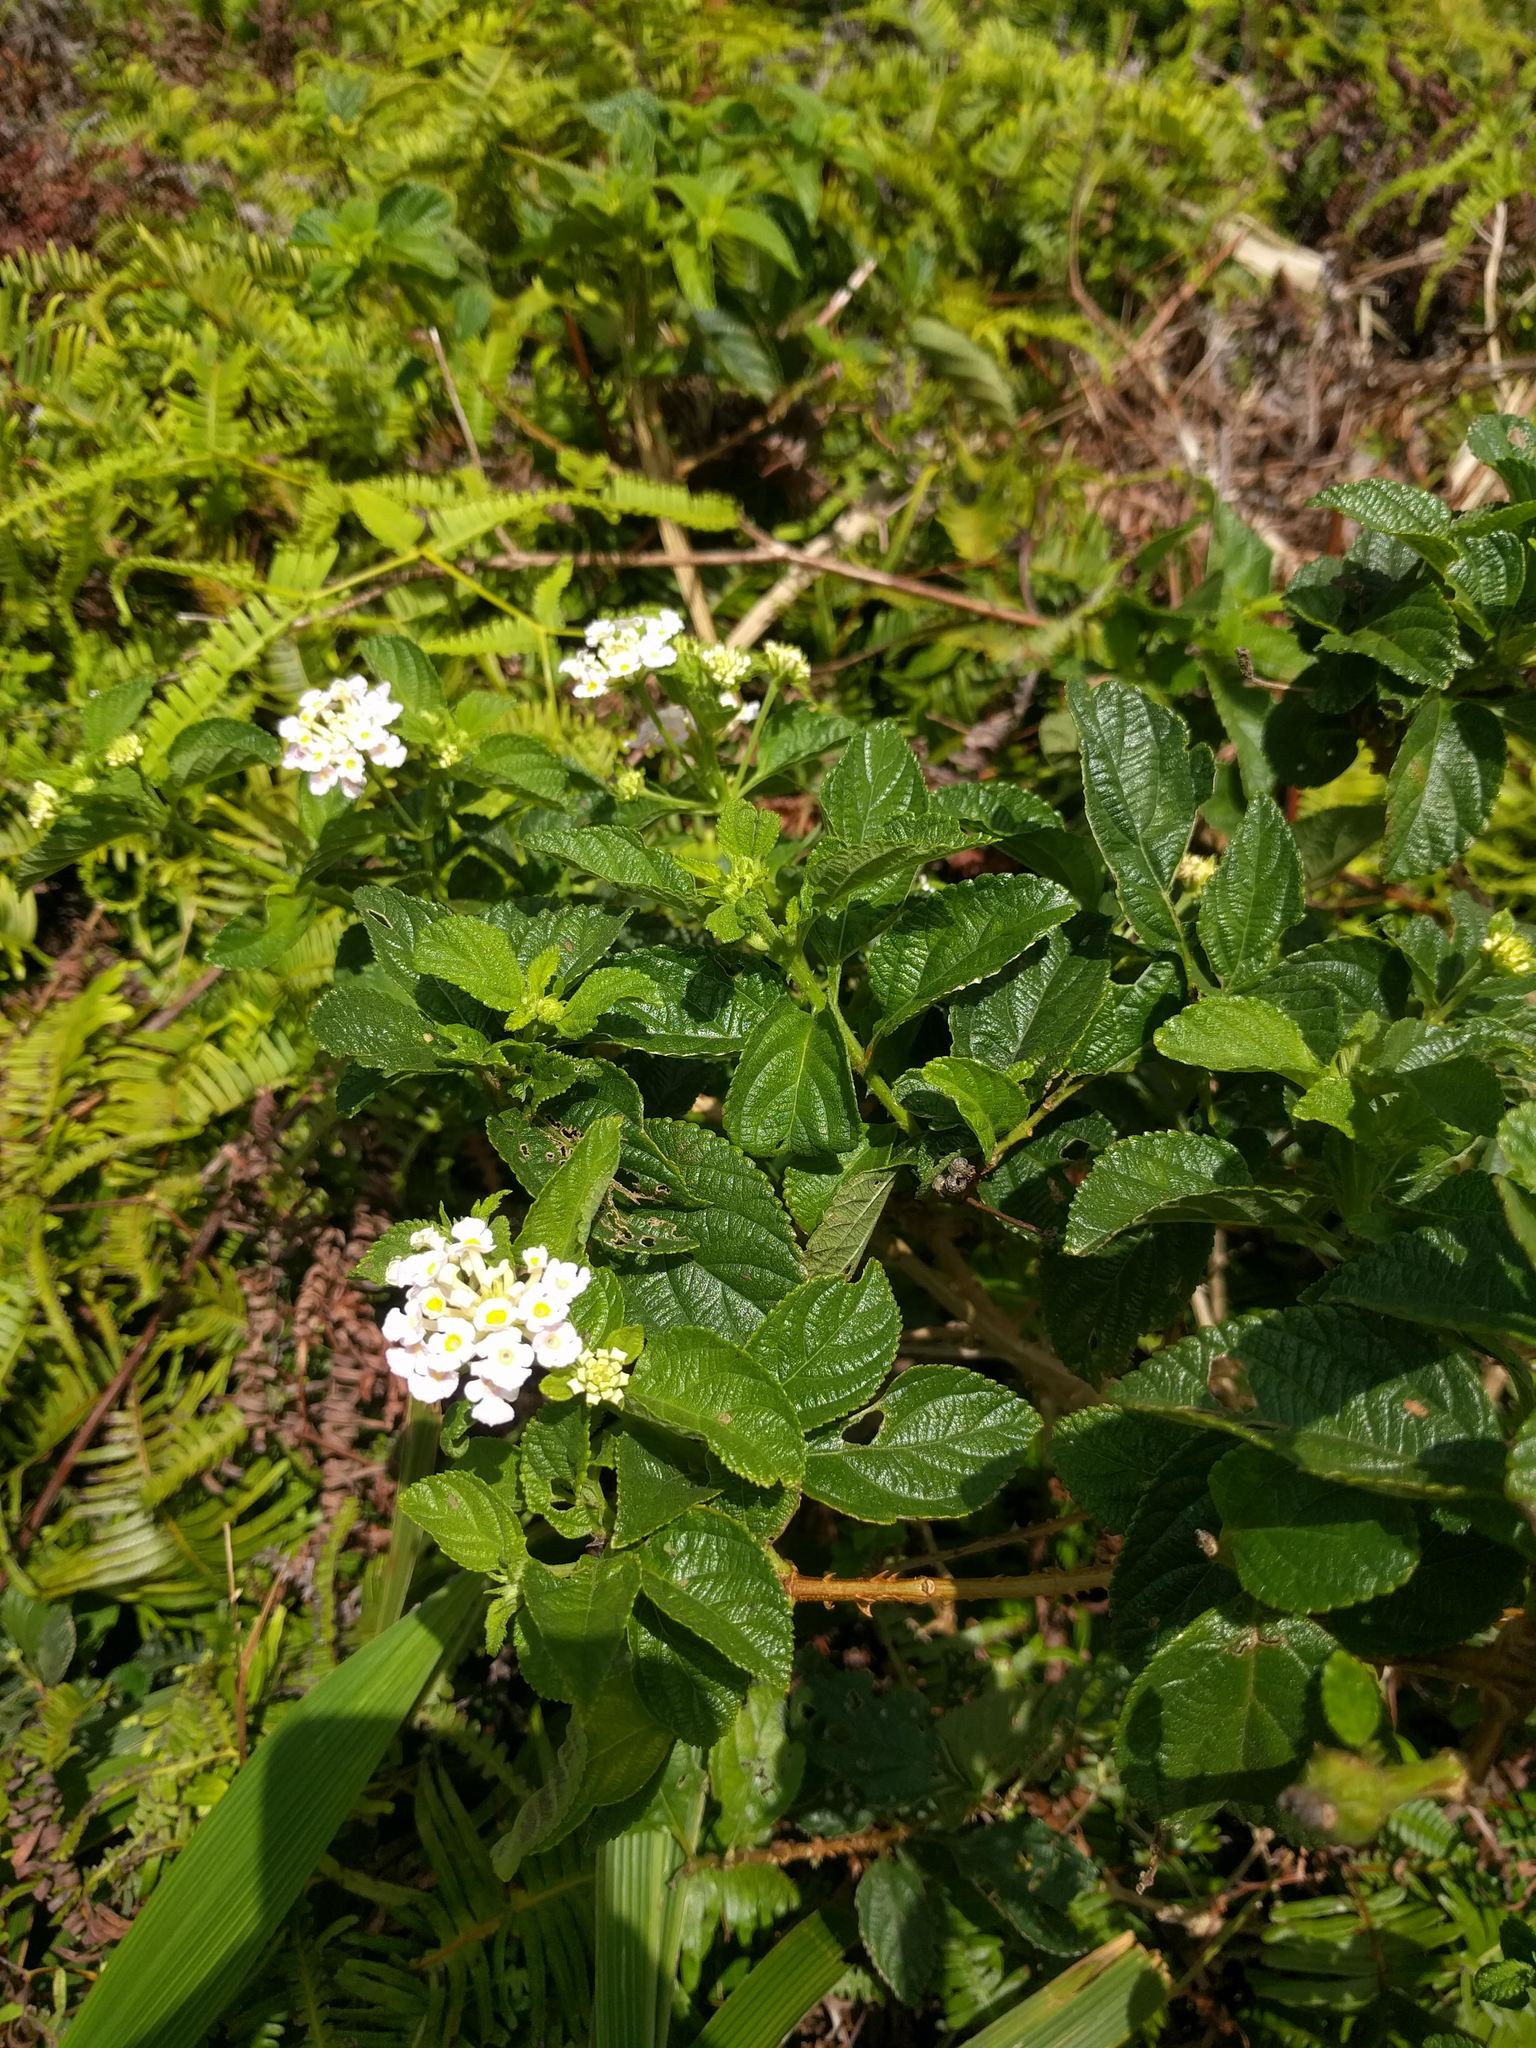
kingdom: Plantae
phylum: Tracheophyta
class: Magnoliopsida
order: Lamiales
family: Verbenaceae
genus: Lantana
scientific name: Lantana camara
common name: Lantana
